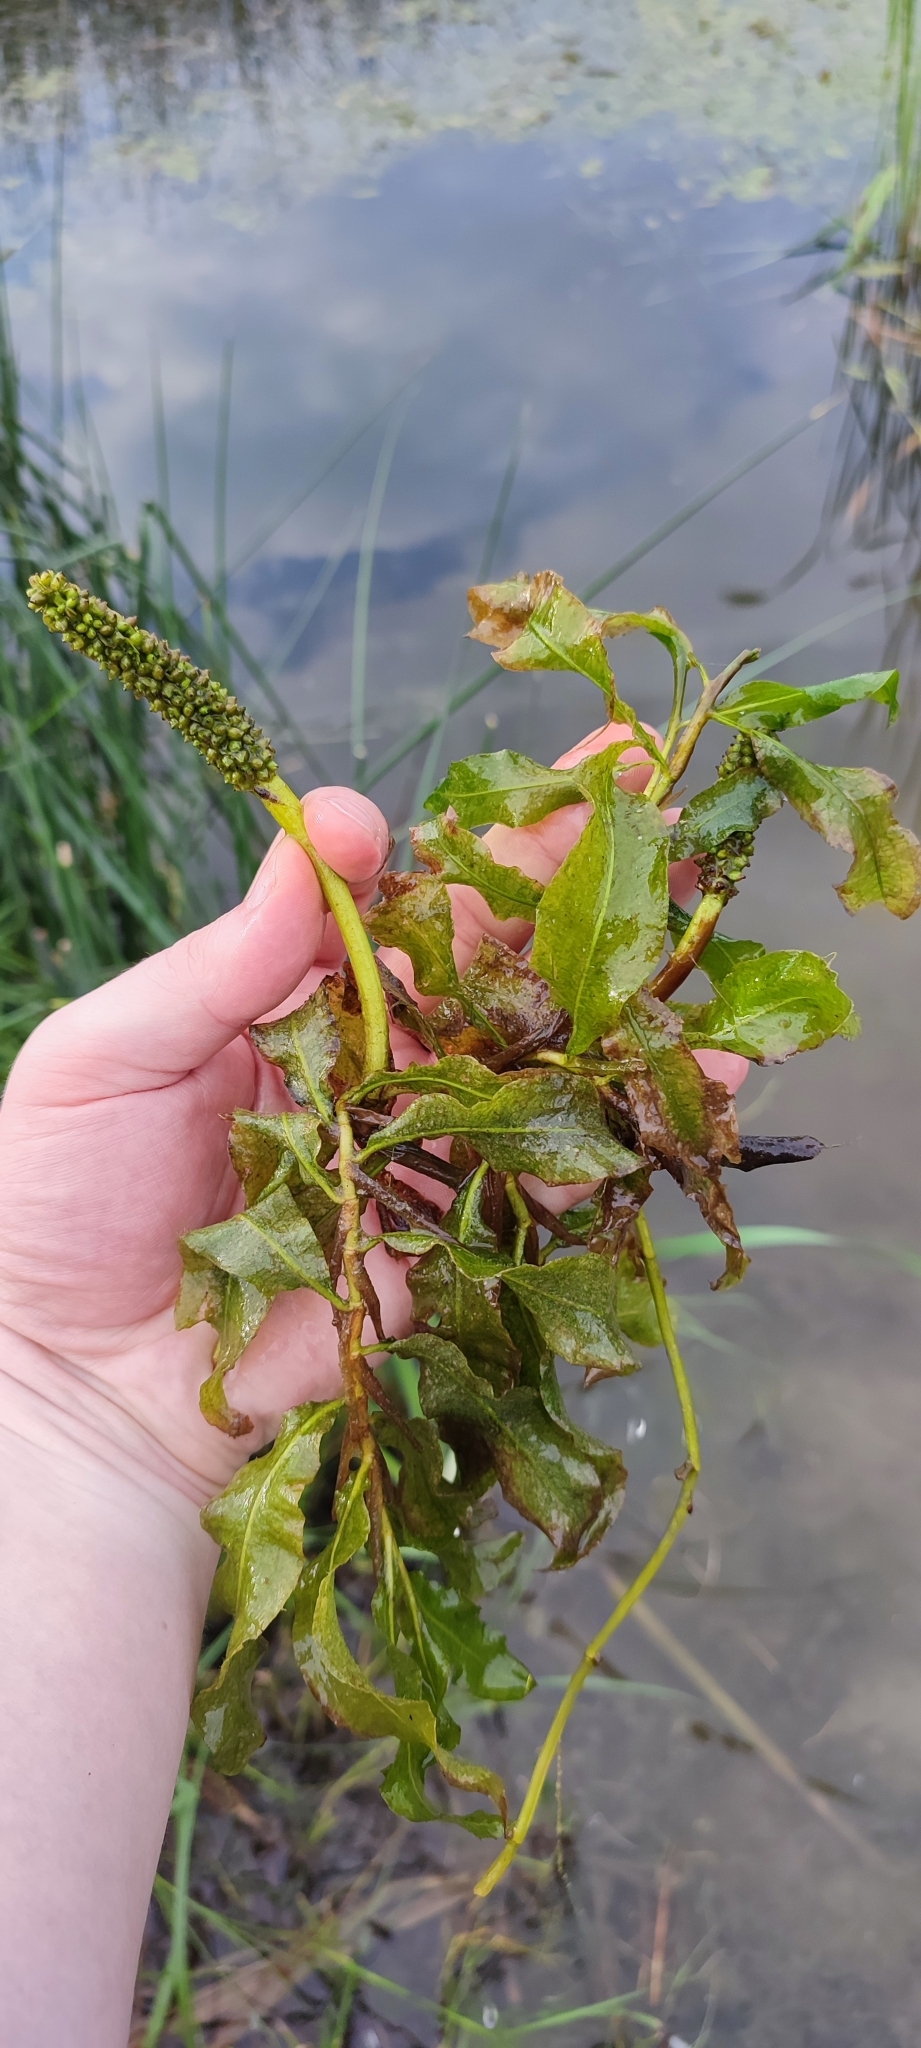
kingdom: Plantae
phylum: Tracheophyta
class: Liliopsida
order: Alismatales
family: Potamogetonaceae
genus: Potamogeton
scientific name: Potamogeton lucens
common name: Shining pondweed
